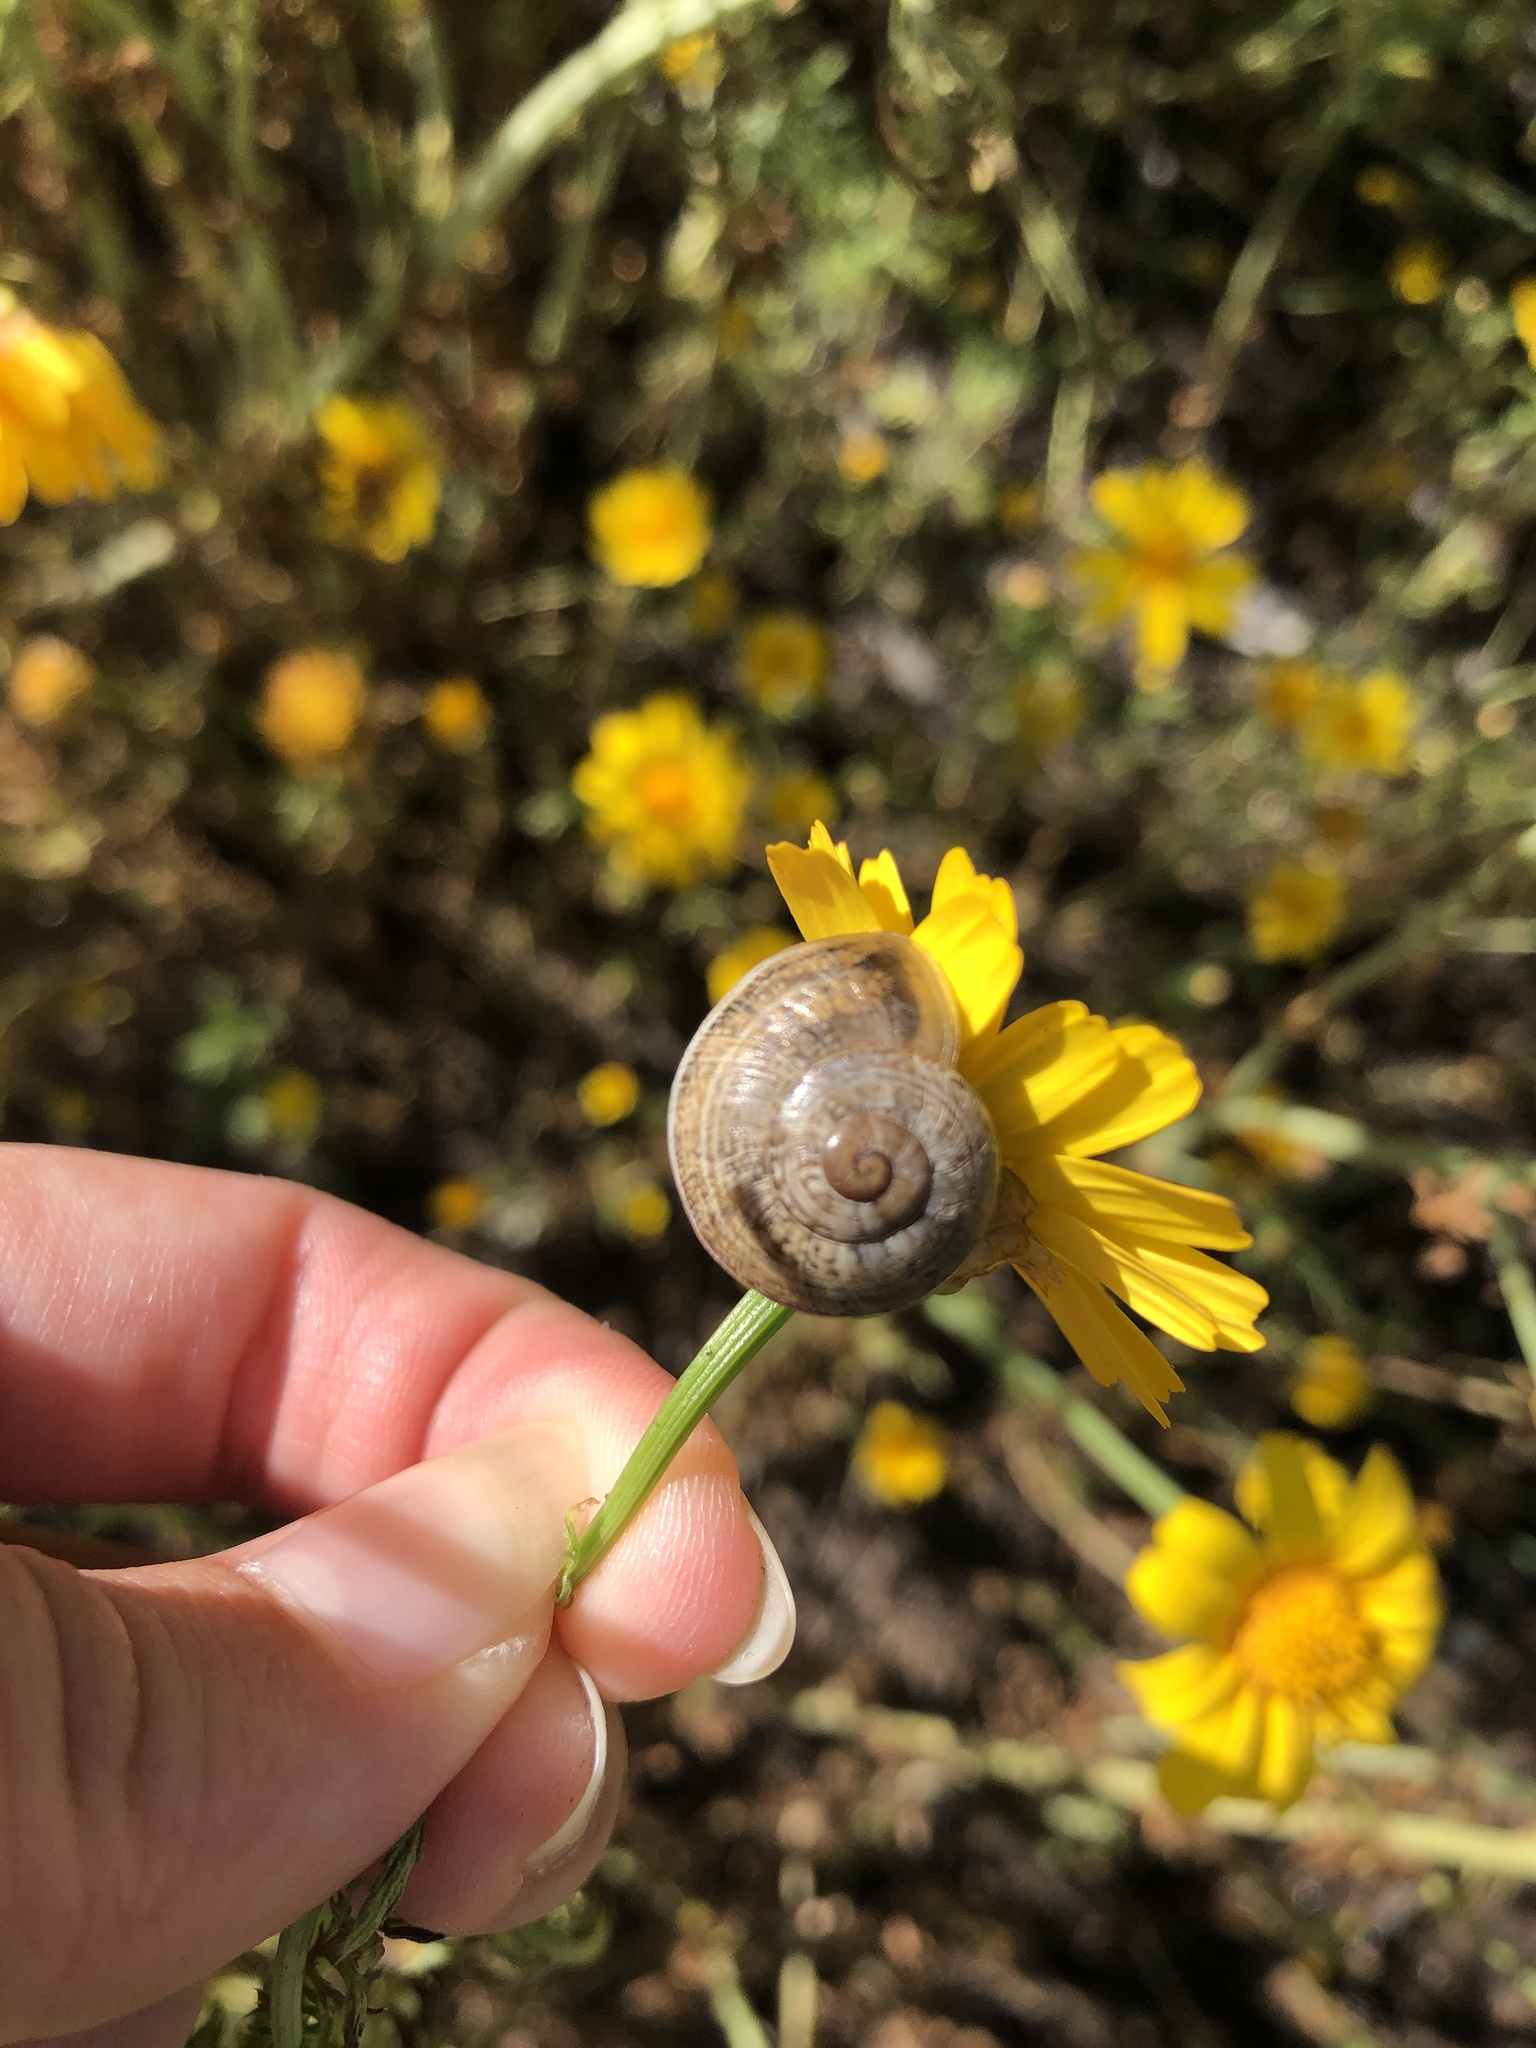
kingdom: Animalia
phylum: Mollusca
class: Gastropoda
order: Stylommatophora
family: Helicidae
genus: Otala
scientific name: Otala lactea
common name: Milk snail
